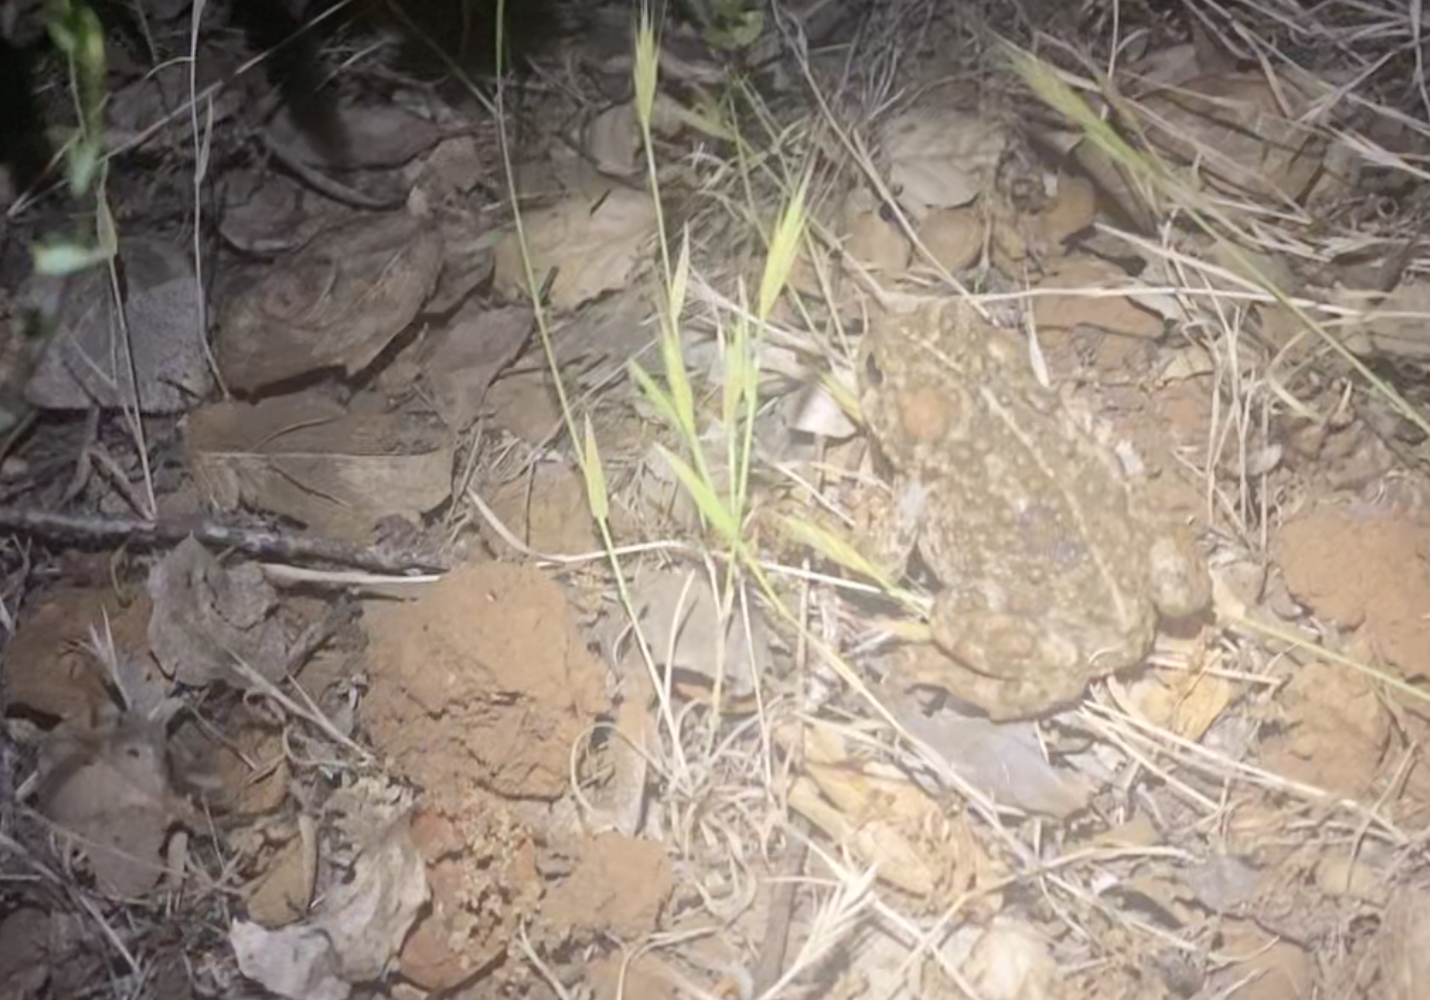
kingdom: Animalia
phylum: Chordata
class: Amphibia
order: Anura
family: Bufonidae
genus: Anaxyrus
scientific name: Anaxyrus boreas
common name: Western toad
